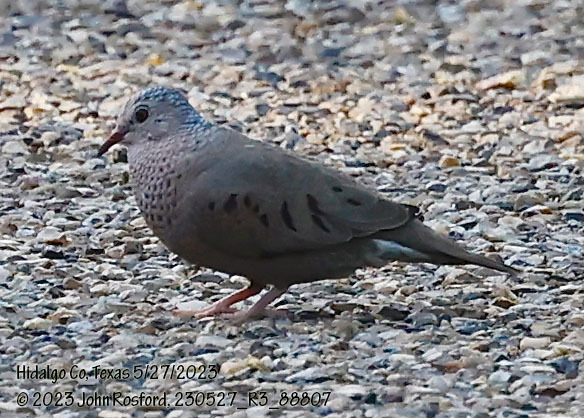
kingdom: Animalia
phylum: Chordata
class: Aves
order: Columbiformes
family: Columbidae
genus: Columbina
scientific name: Columbina passerina
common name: Common ground-dove
